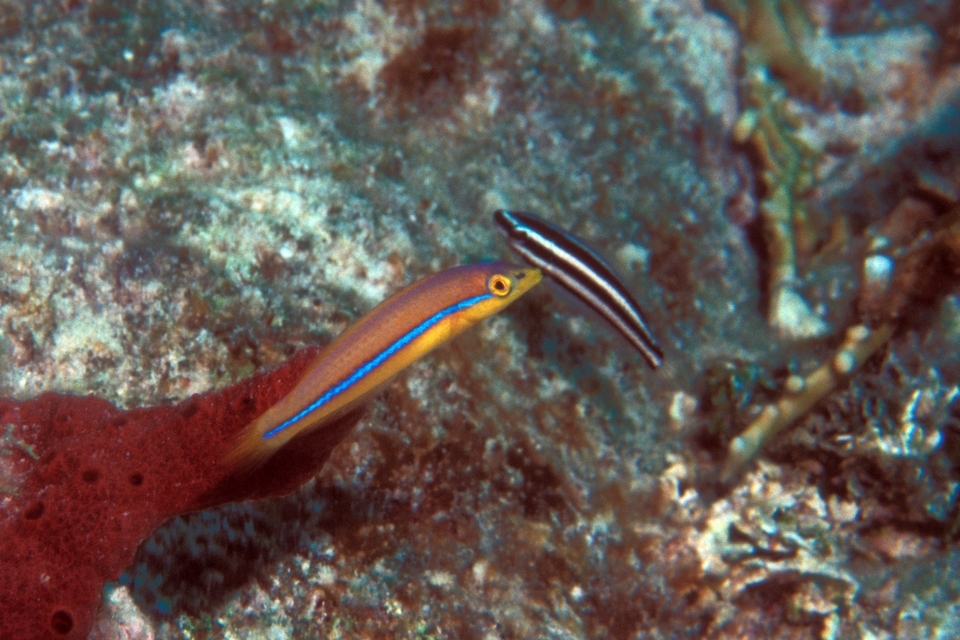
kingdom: Animalia
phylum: Chordata
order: Perciformes
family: Labridae
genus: Halichoeres
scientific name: Halichoeres garnoti
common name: Yellowhead wrasse
